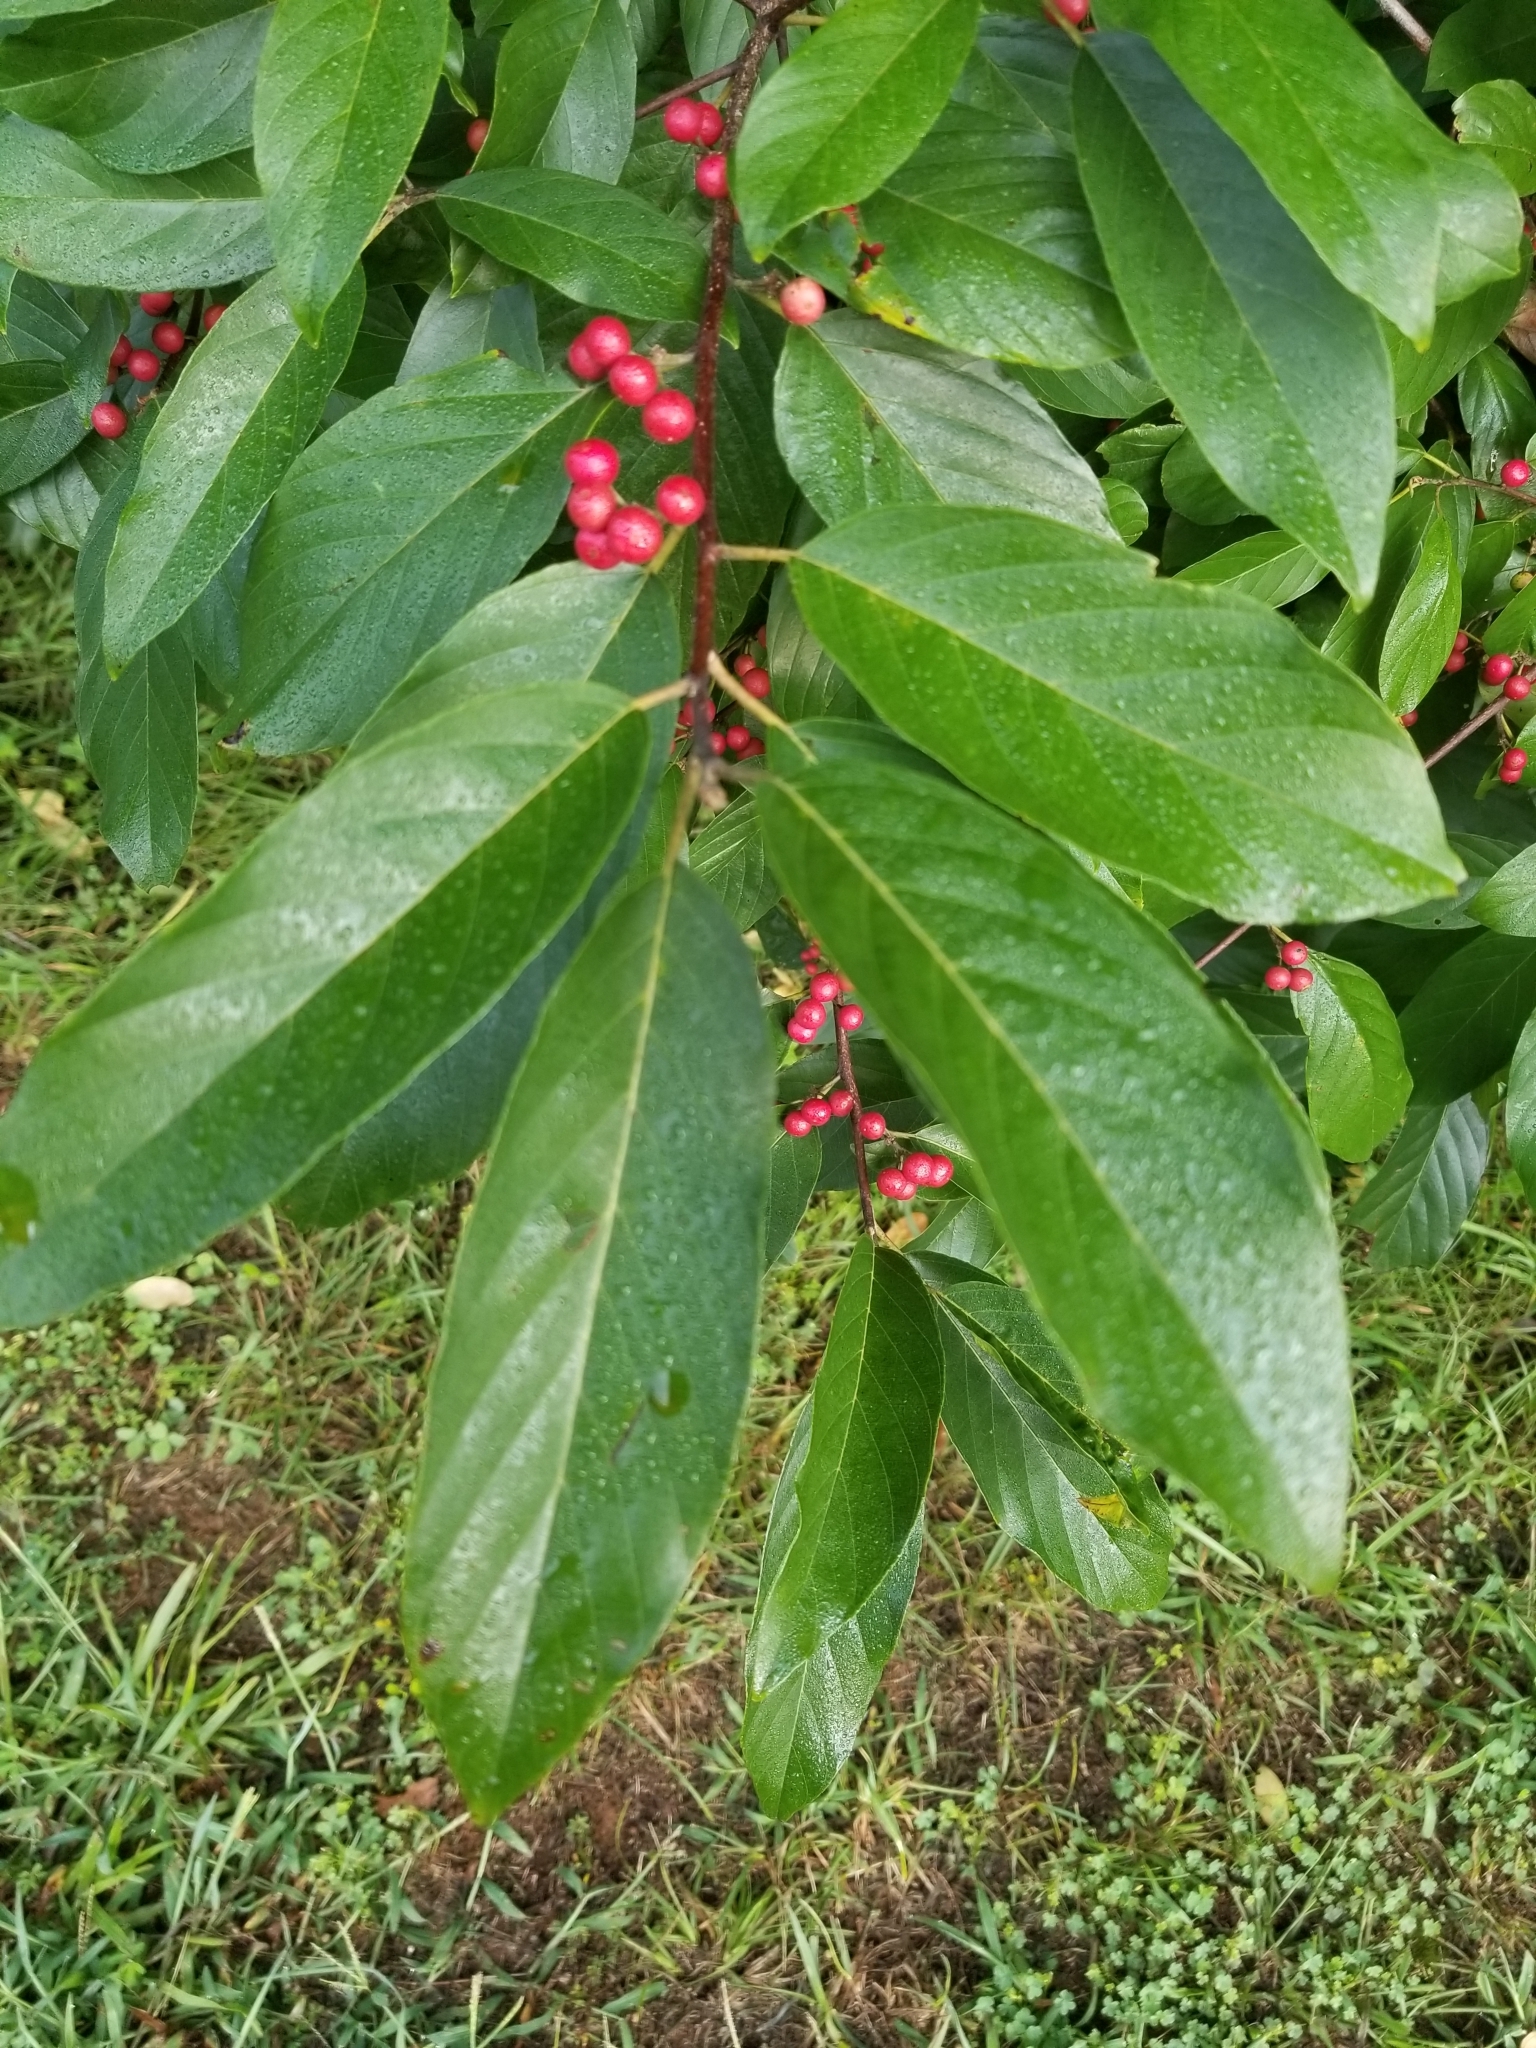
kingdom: Plantae
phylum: Tracheophyta
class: Magnoliopsida
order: Rosales
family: Rhamnaceae
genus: Frangula
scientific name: Frangula caroliniana
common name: Carolina buckthorn
